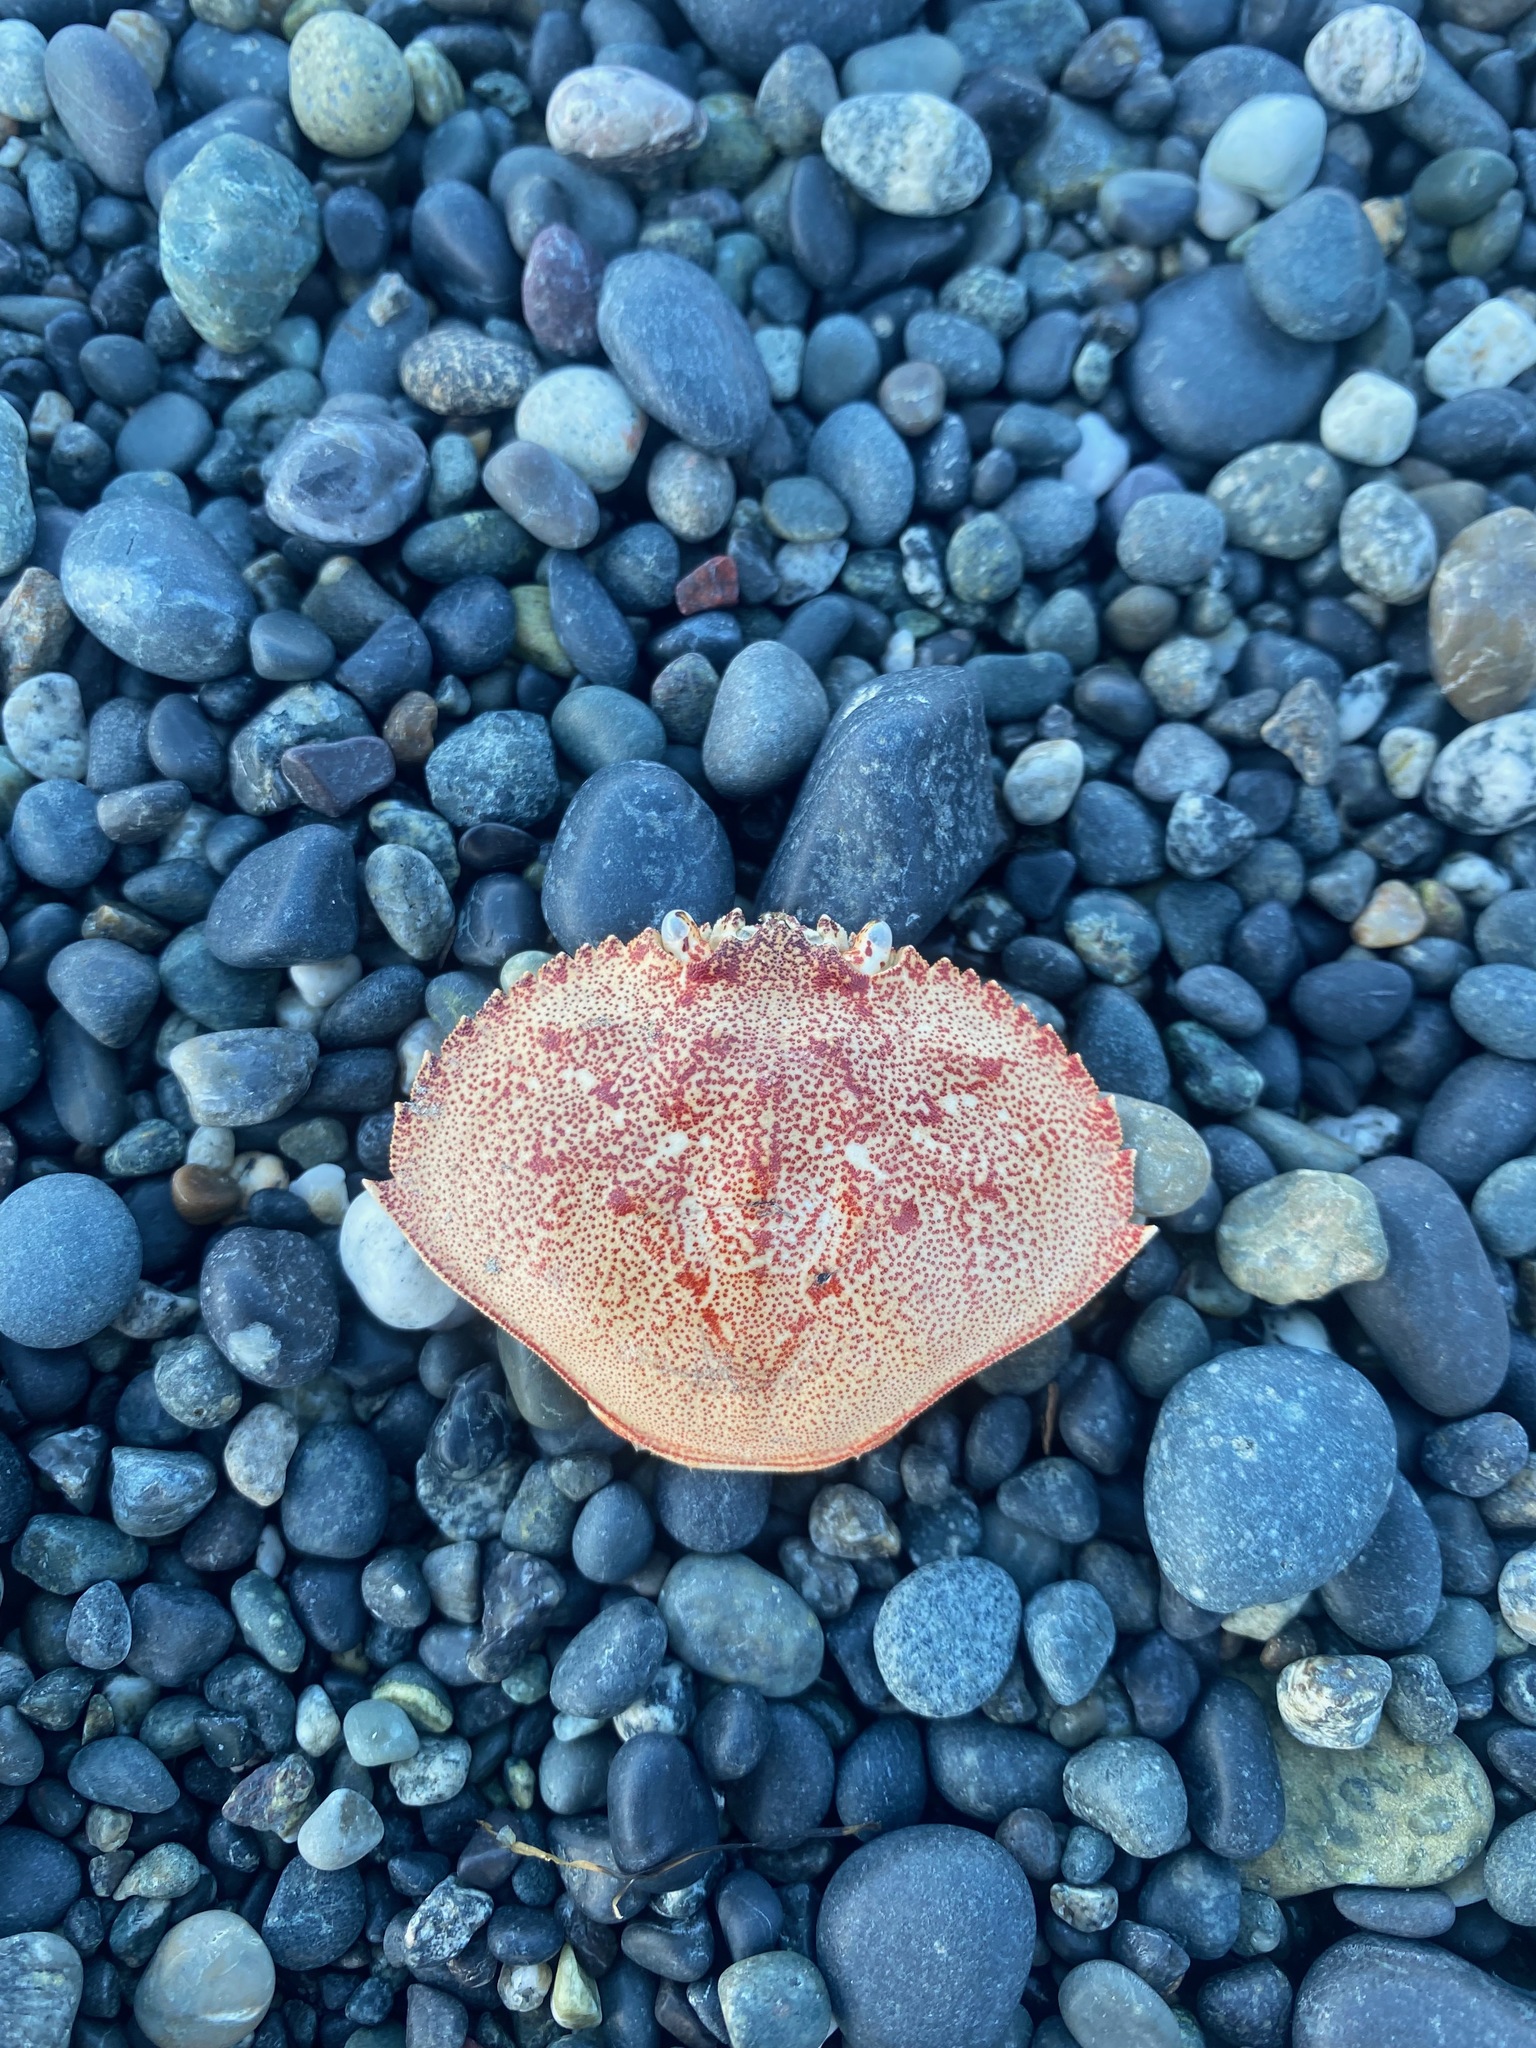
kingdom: Animalia
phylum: Arthropoda
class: Malacostraca
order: Decapoda
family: Cancridae
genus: Metacarcinus
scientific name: Metacarcinus magister
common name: Californian crab
